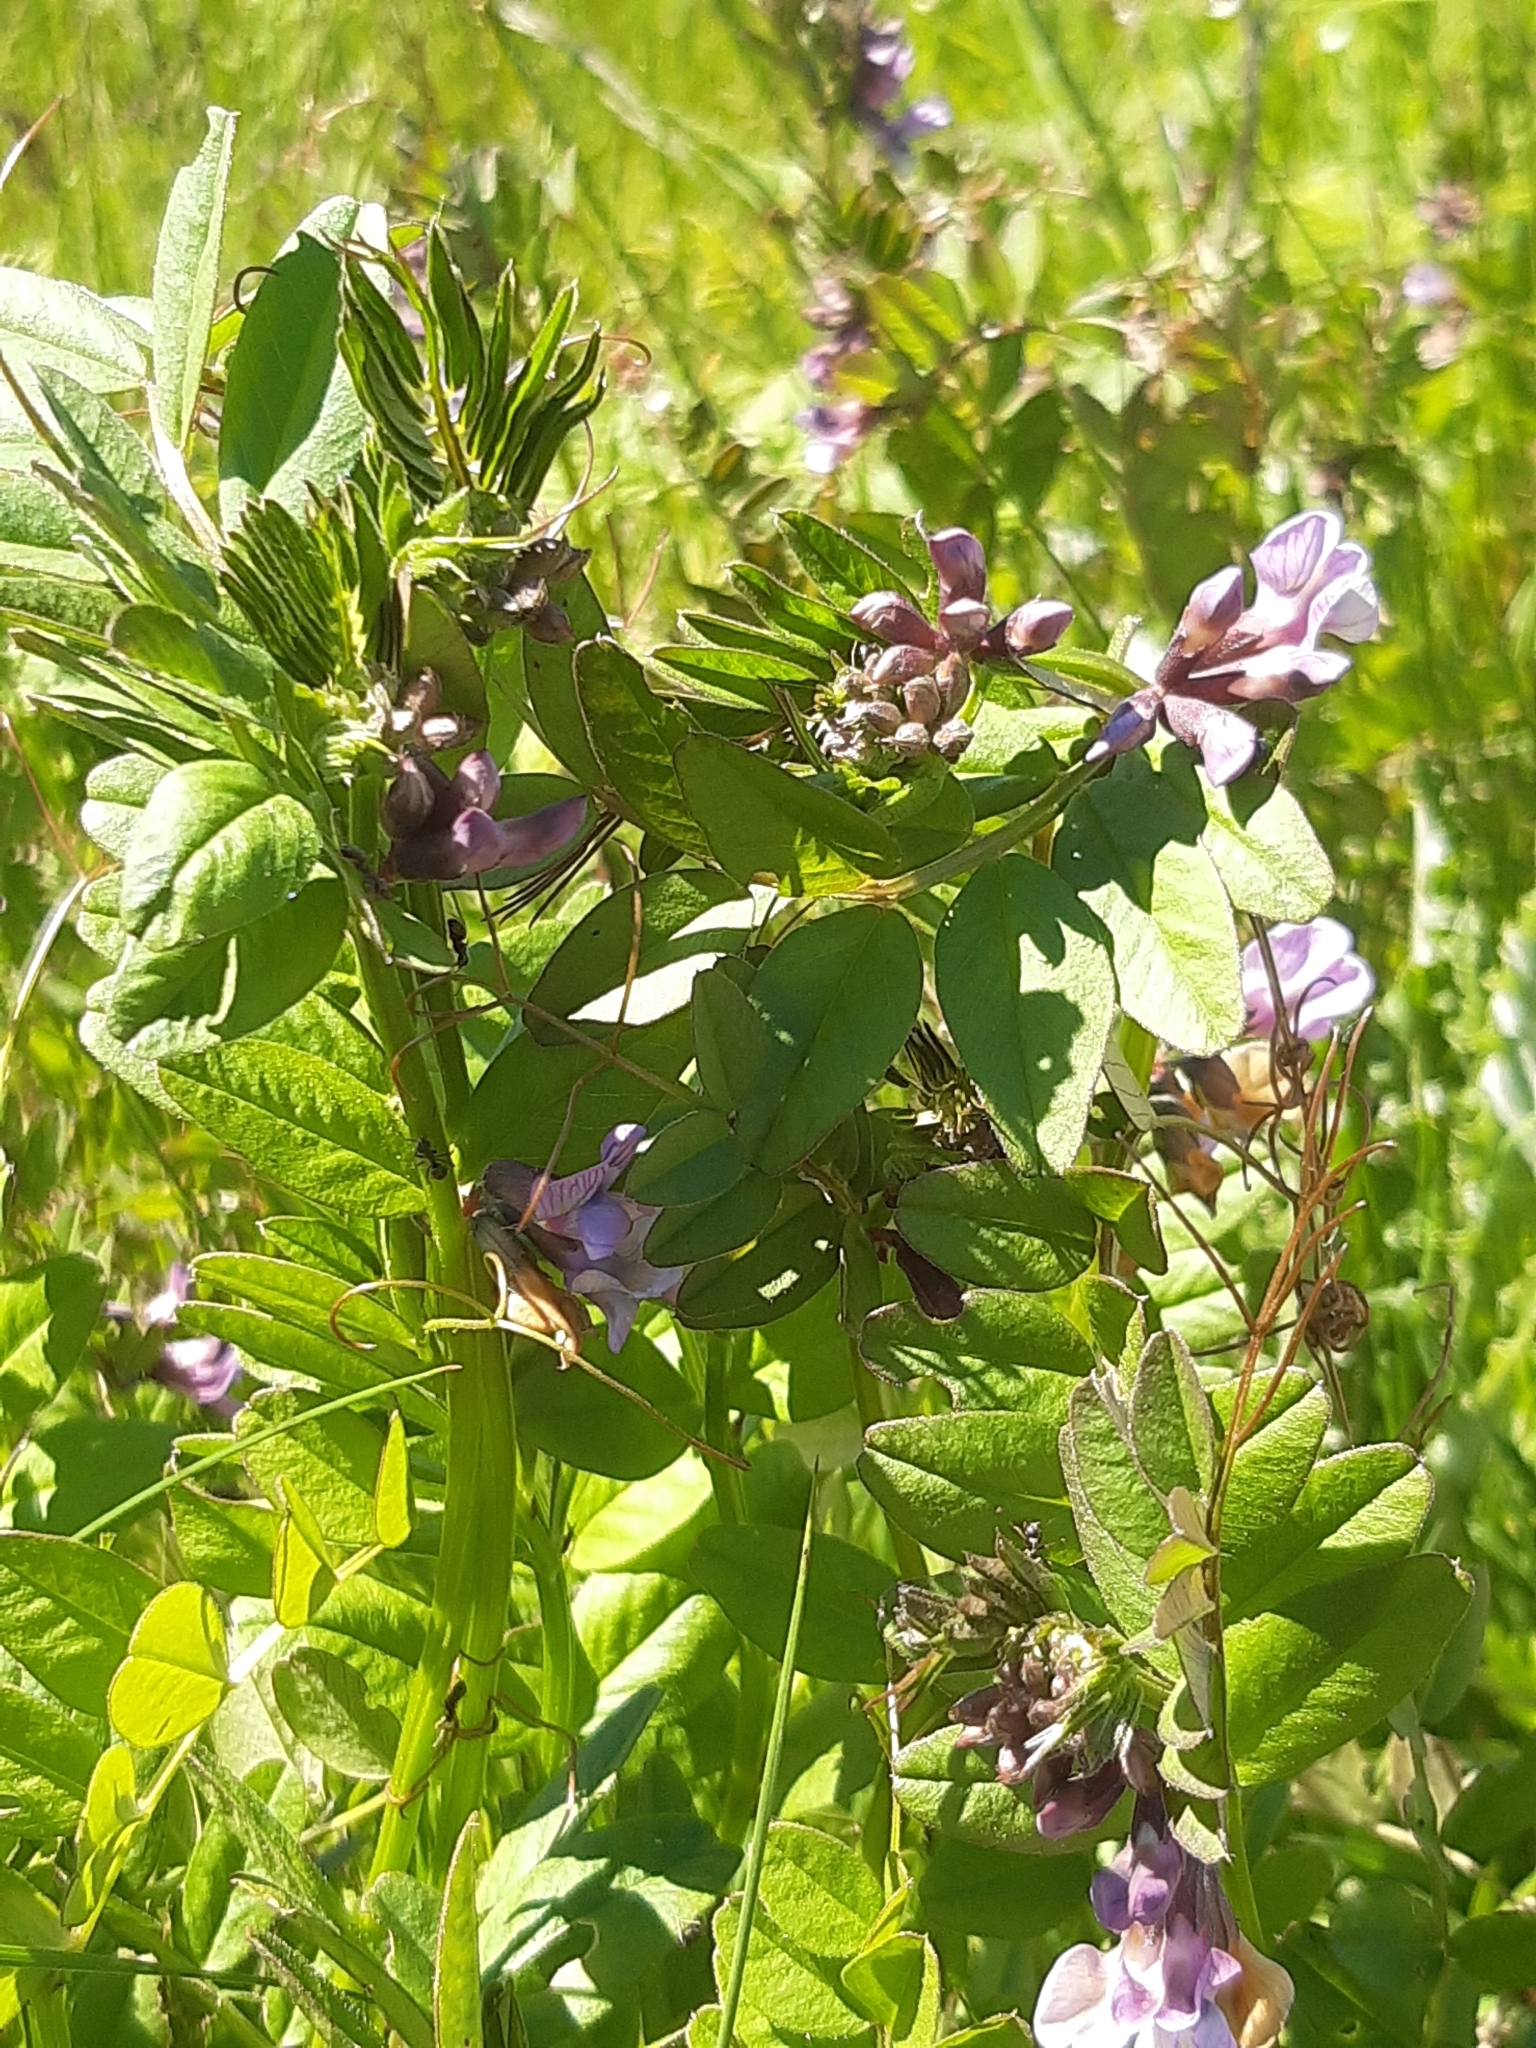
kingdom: Plantae
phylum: Tracheophyta
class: Magnoliopsida
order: Fabales
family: Fabaceae
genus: Vicia
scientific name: Vicia sepium
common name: Bush vetch
